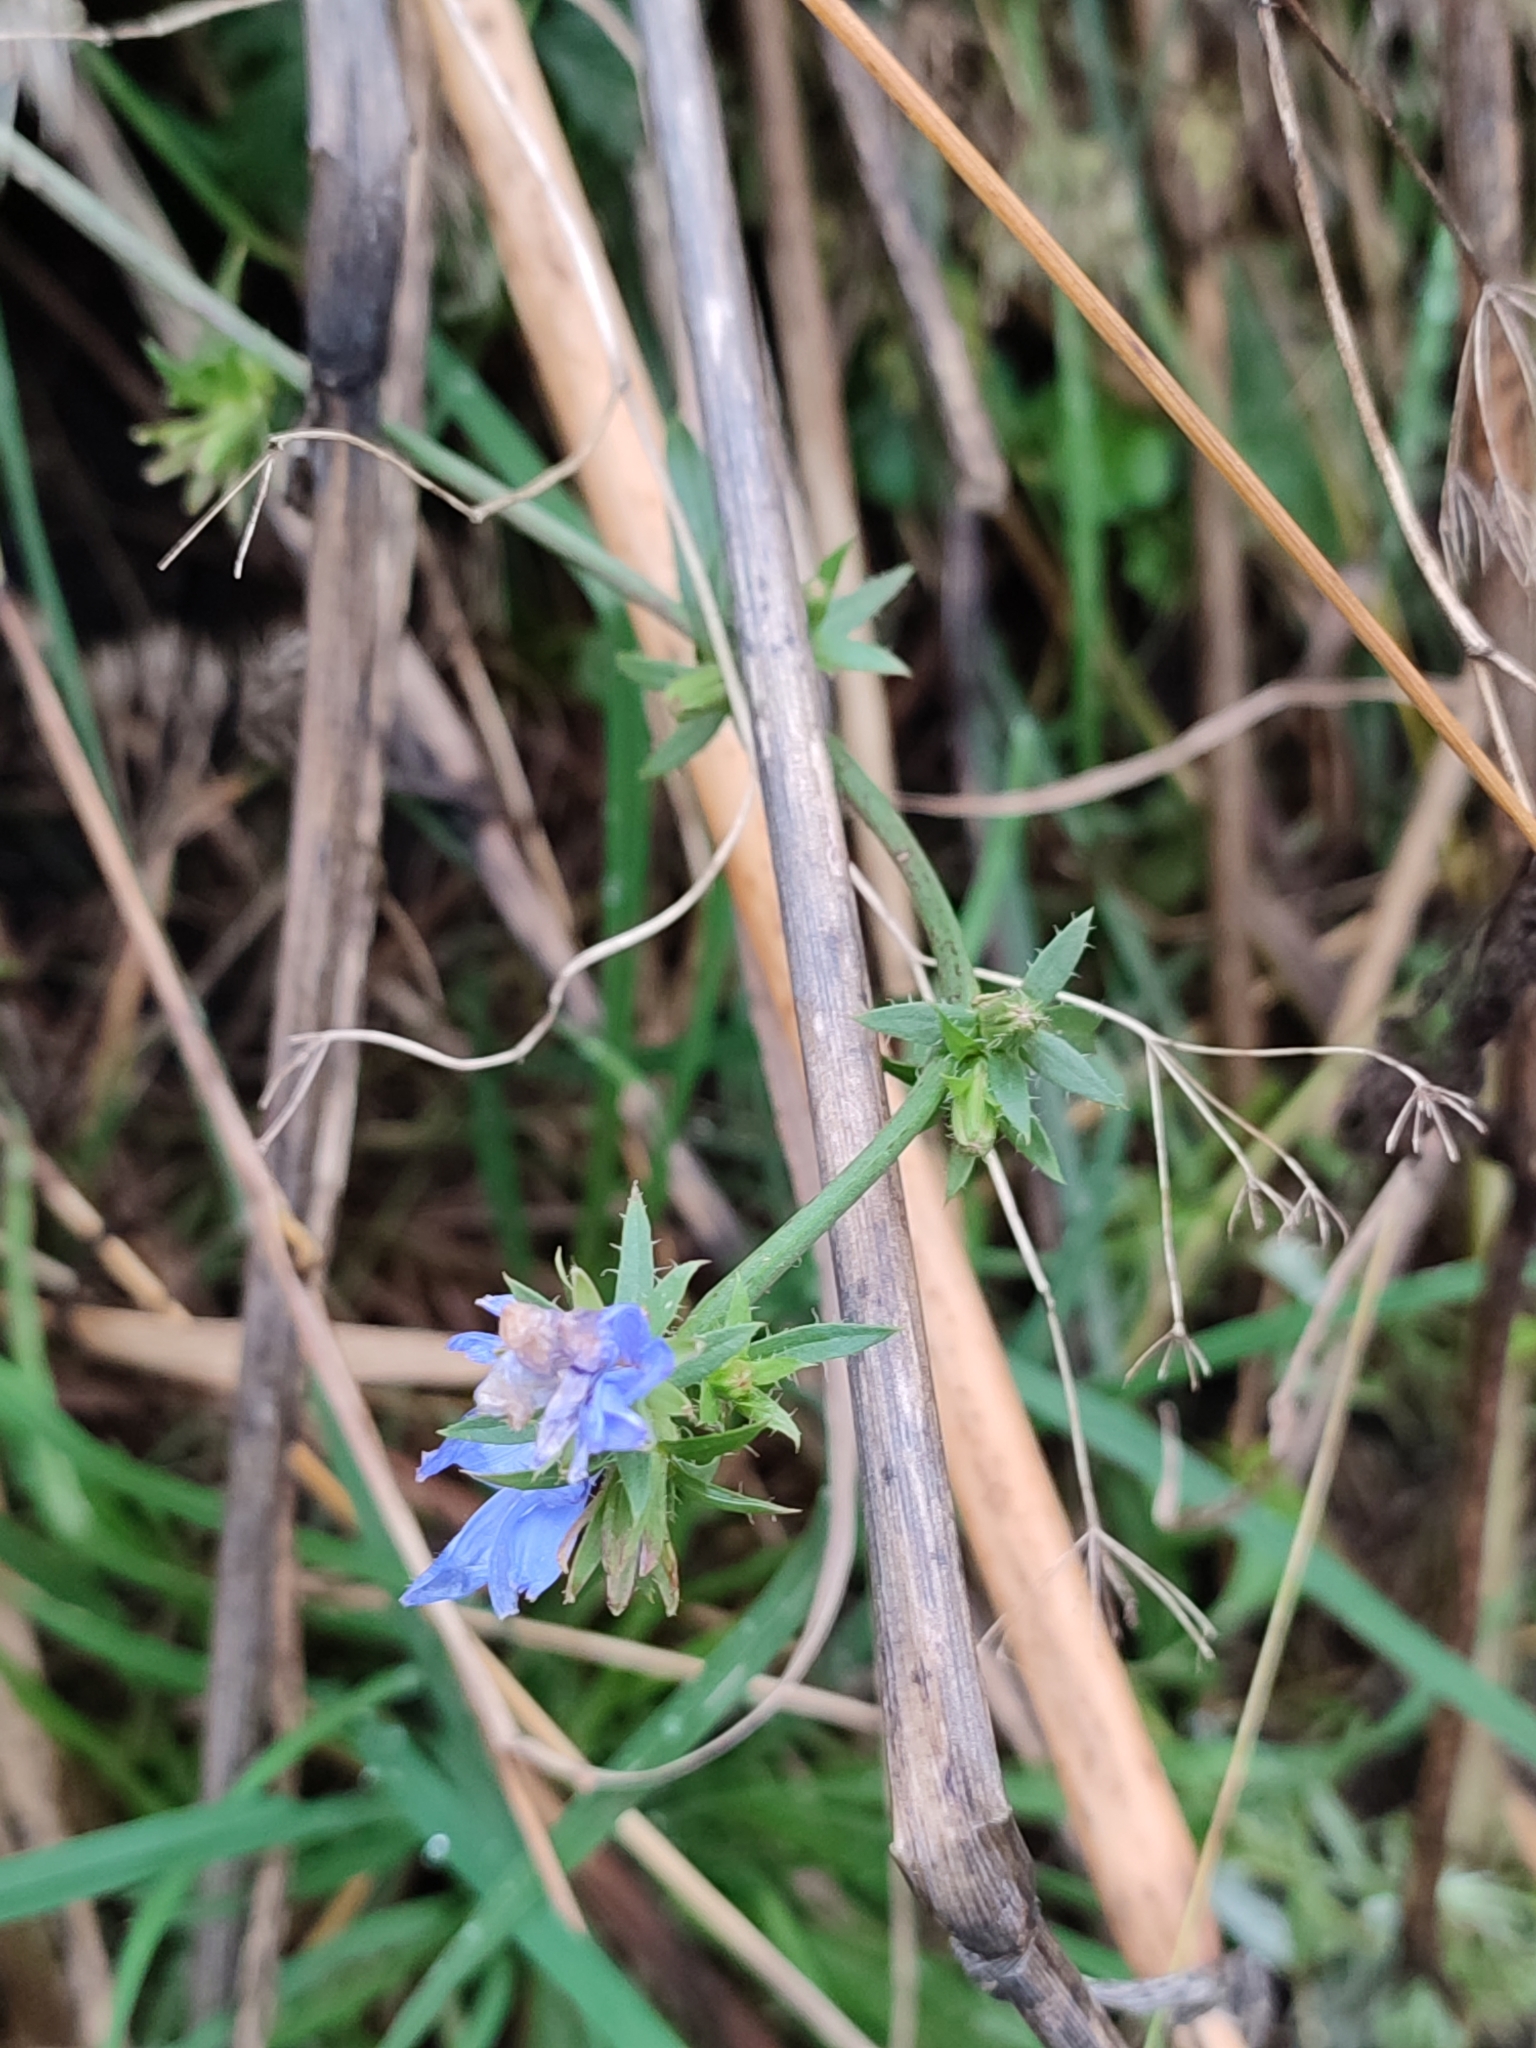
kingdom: Plantae
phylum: Tracheophyta
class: Magnoliopsida
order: Asterales
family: Asteraceae
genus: Cichorium
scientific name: Cichorium intybus
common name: Chicory
